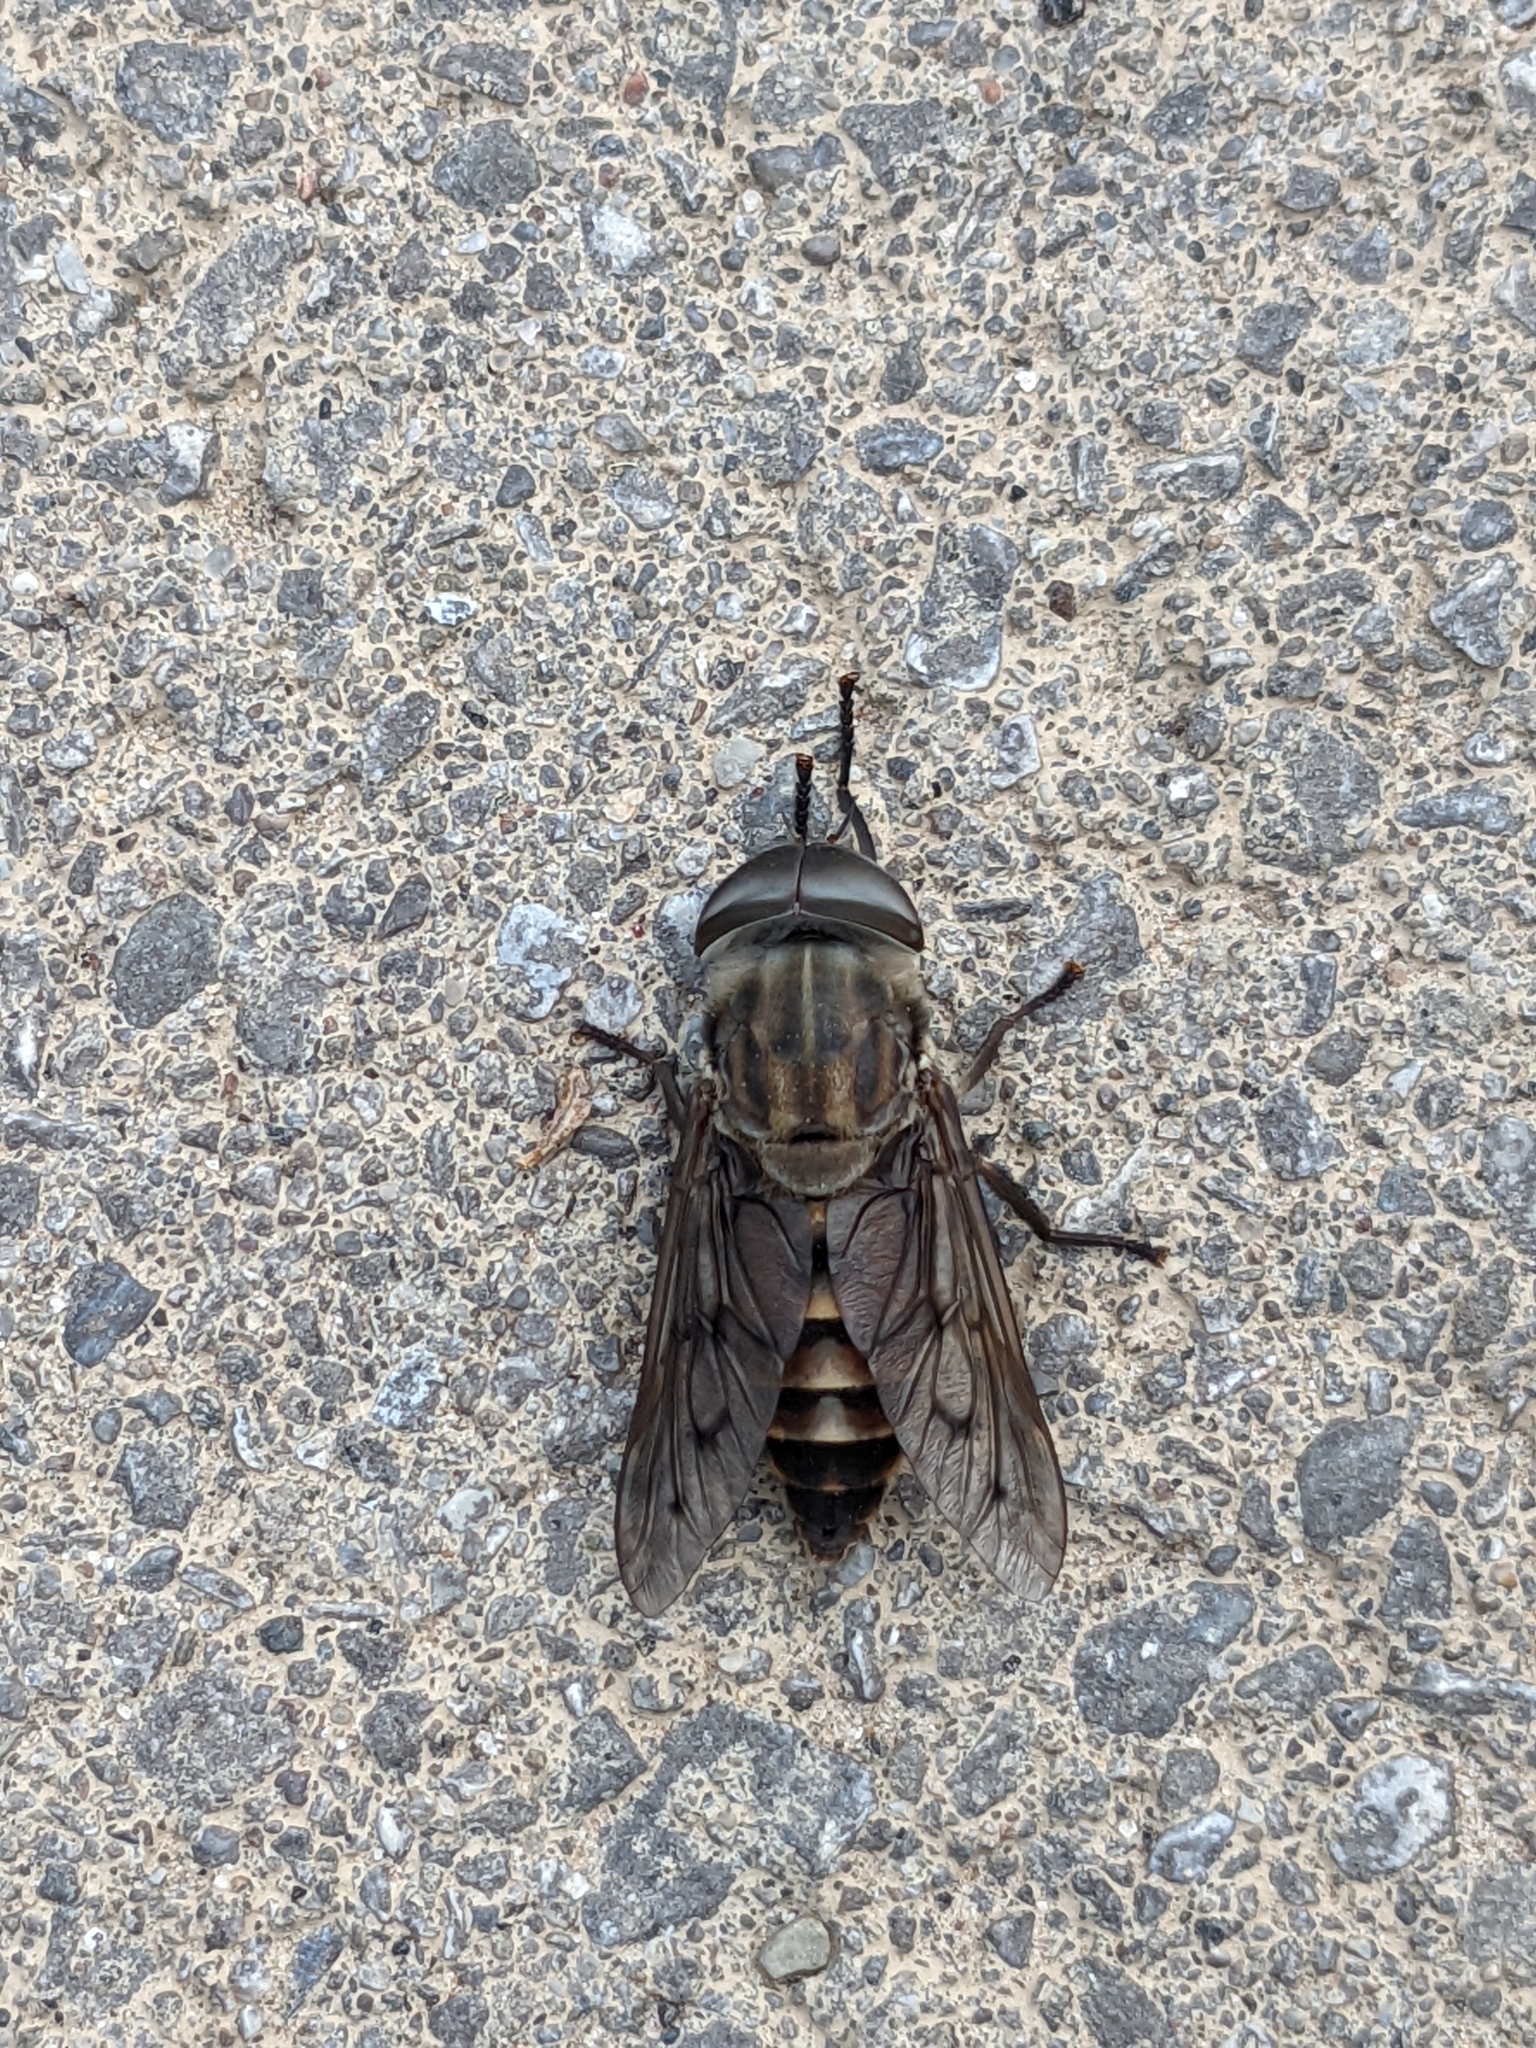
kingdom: Animalia
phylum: Arthropoda
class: Insecta
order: Diptera
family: Tabanidae
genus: Tabanus
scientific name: Tabanus sulcifrons
